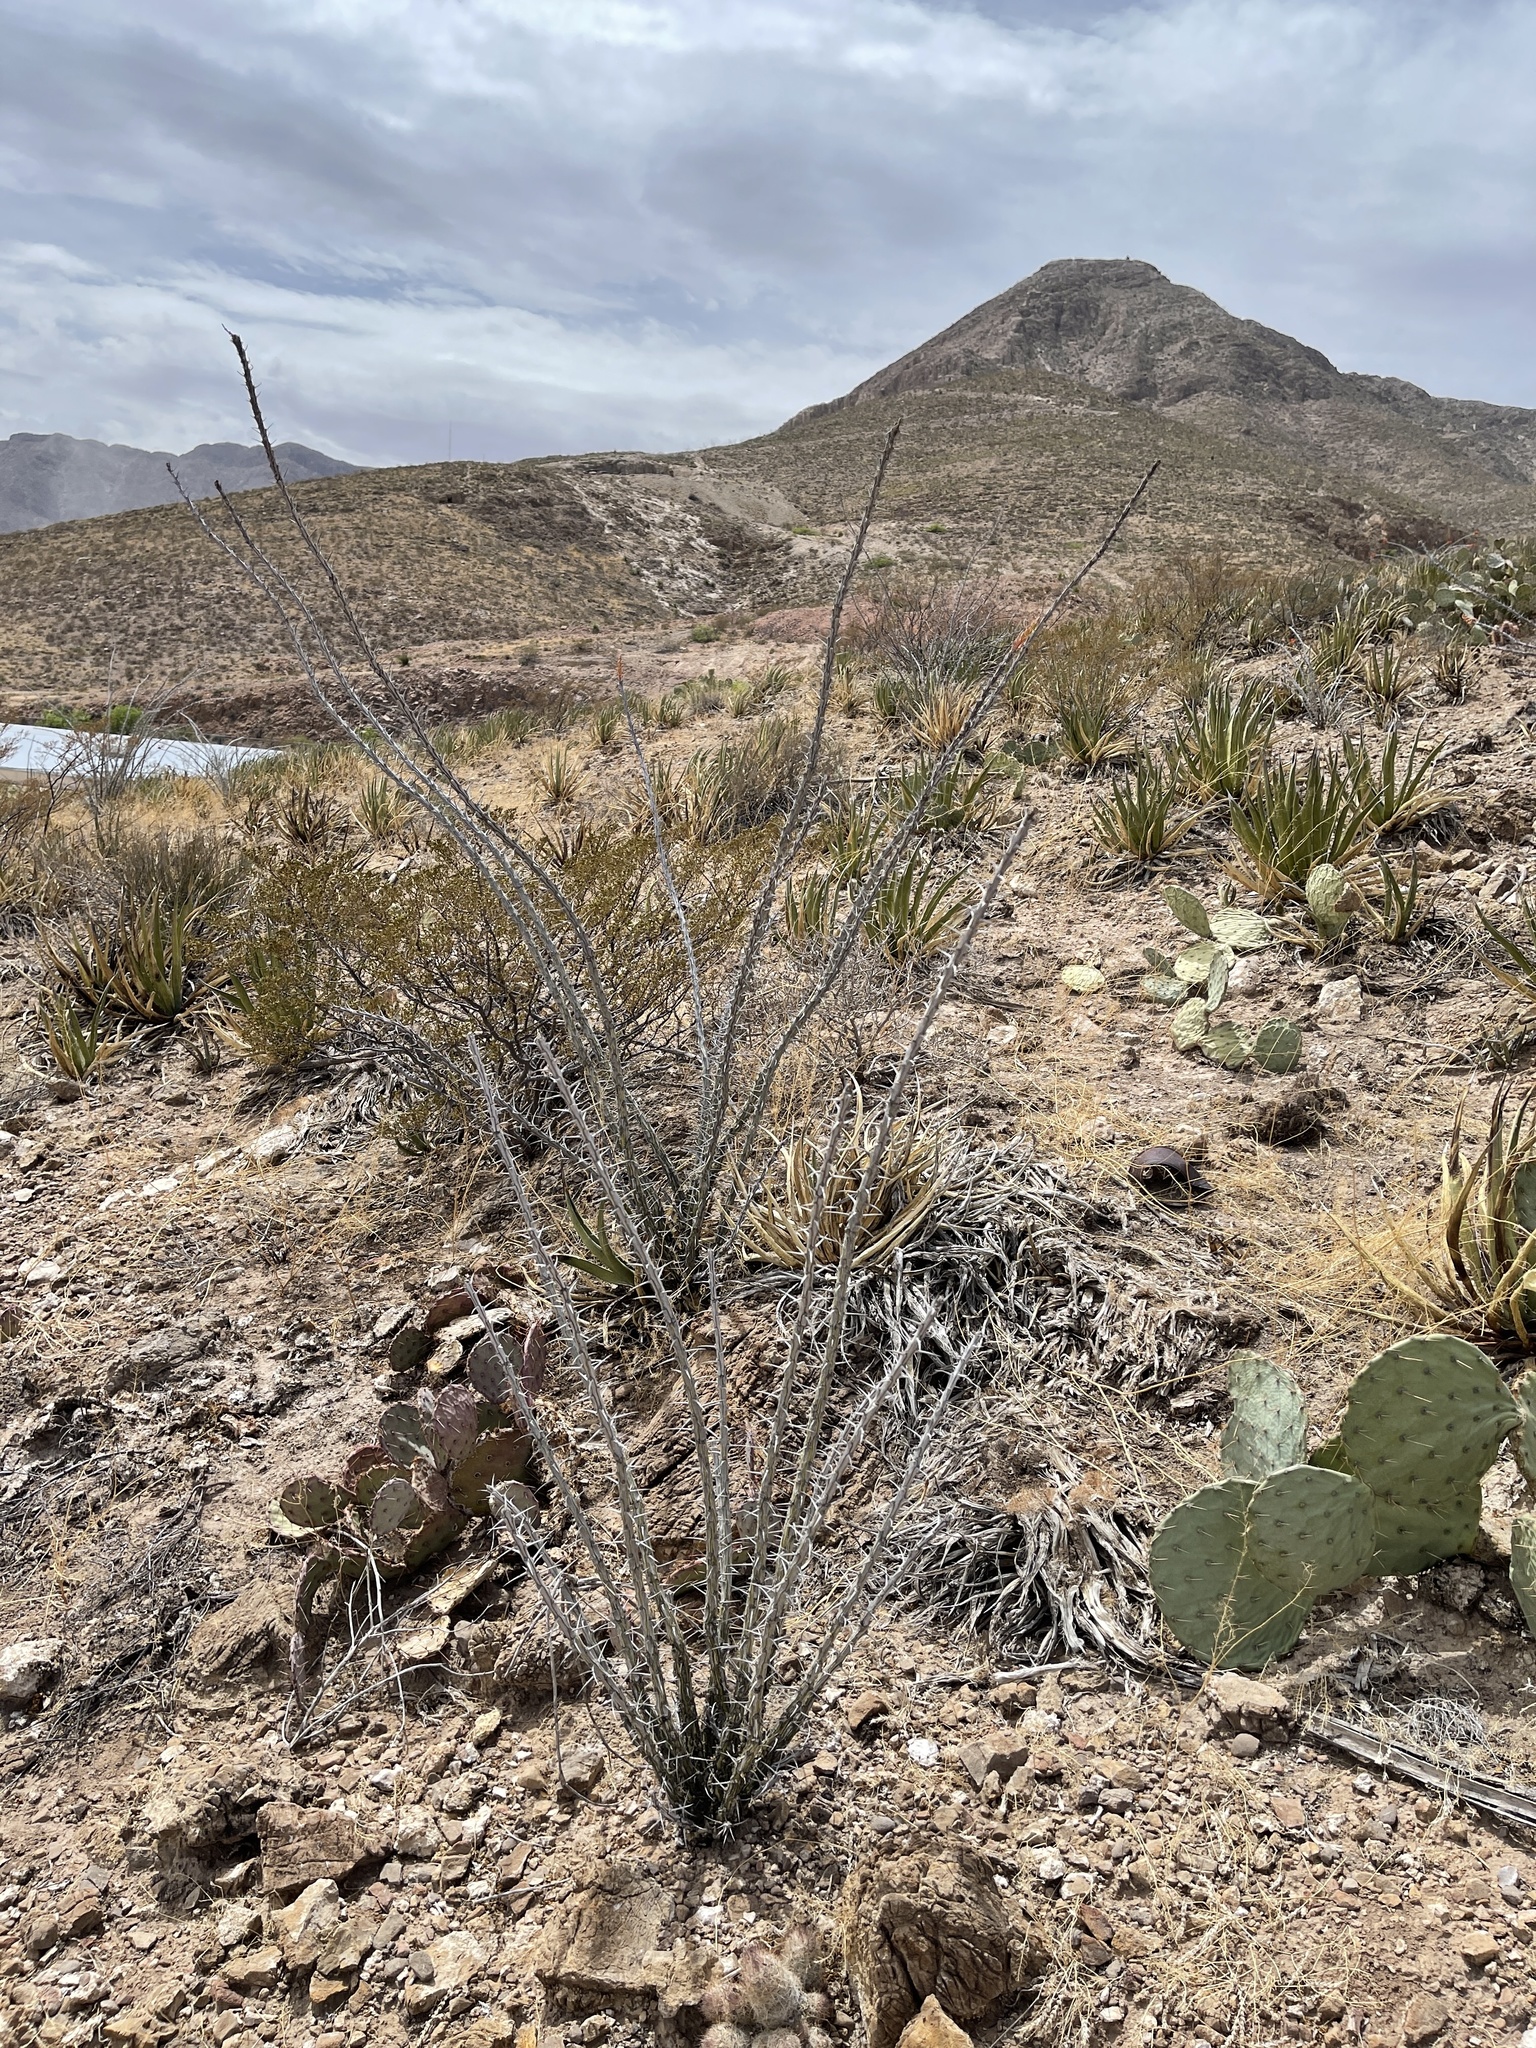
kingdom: Plantae
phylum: Tracheophyta
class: Magnoliopsida
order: Ericales
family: Fouquieriaceae
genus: Fouquieria
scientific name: Fouquieria splendens
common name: Vine-cactus
